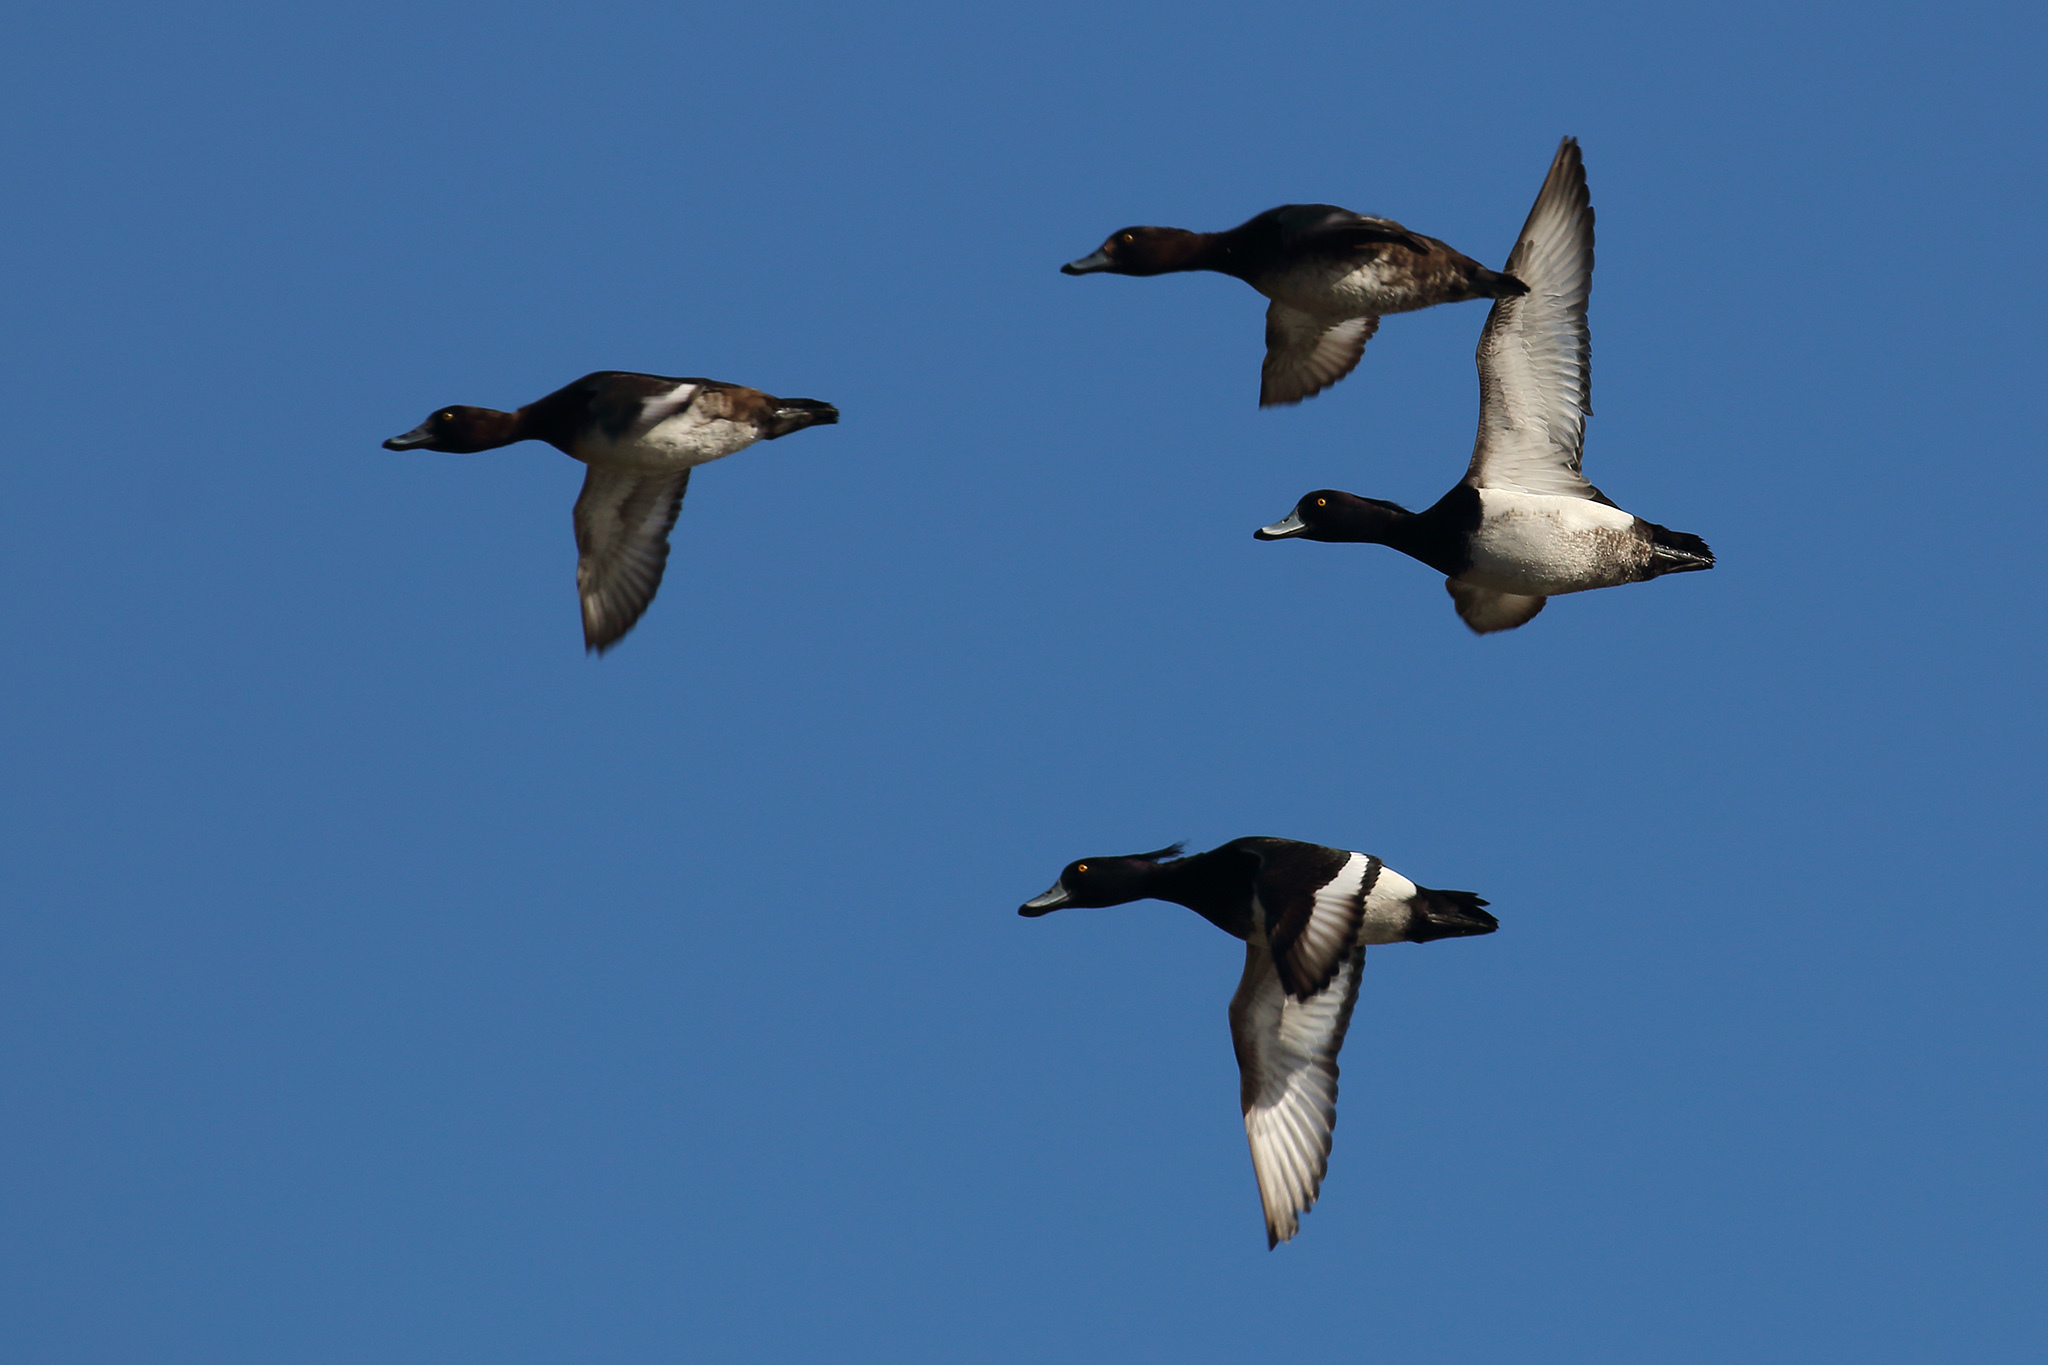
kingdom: Animalia
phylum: Chordata
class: Aves
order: Anseriformes
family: Anatidae
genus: Aythya
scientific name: Aythya fuligula
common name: Tufted duck
